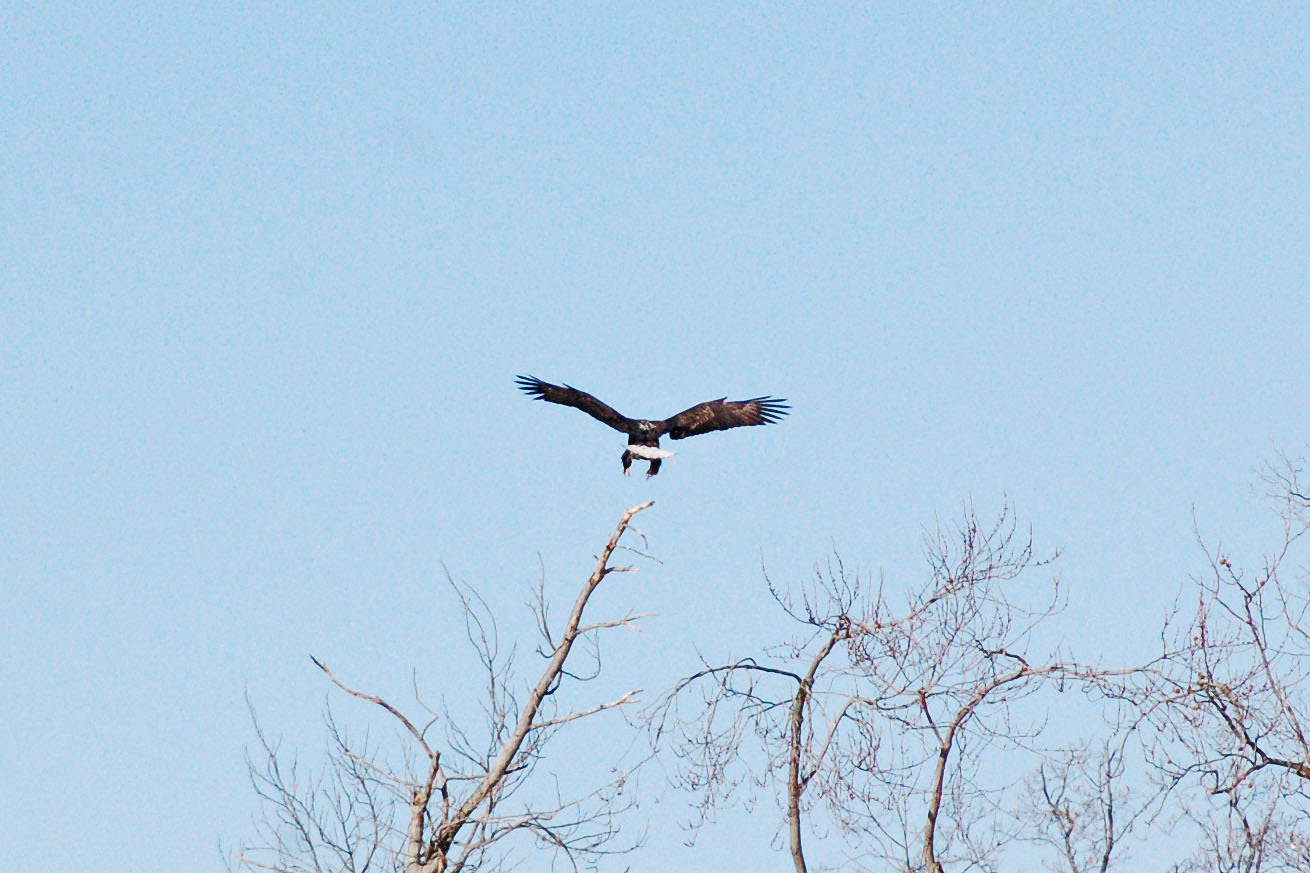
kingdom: Animalia
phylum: Chordata
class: Aves
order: Accipitriformes
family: Accipitridae
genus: Haliaeetus
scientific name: Haliaeetus leucocephalus
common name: Bald eagle
